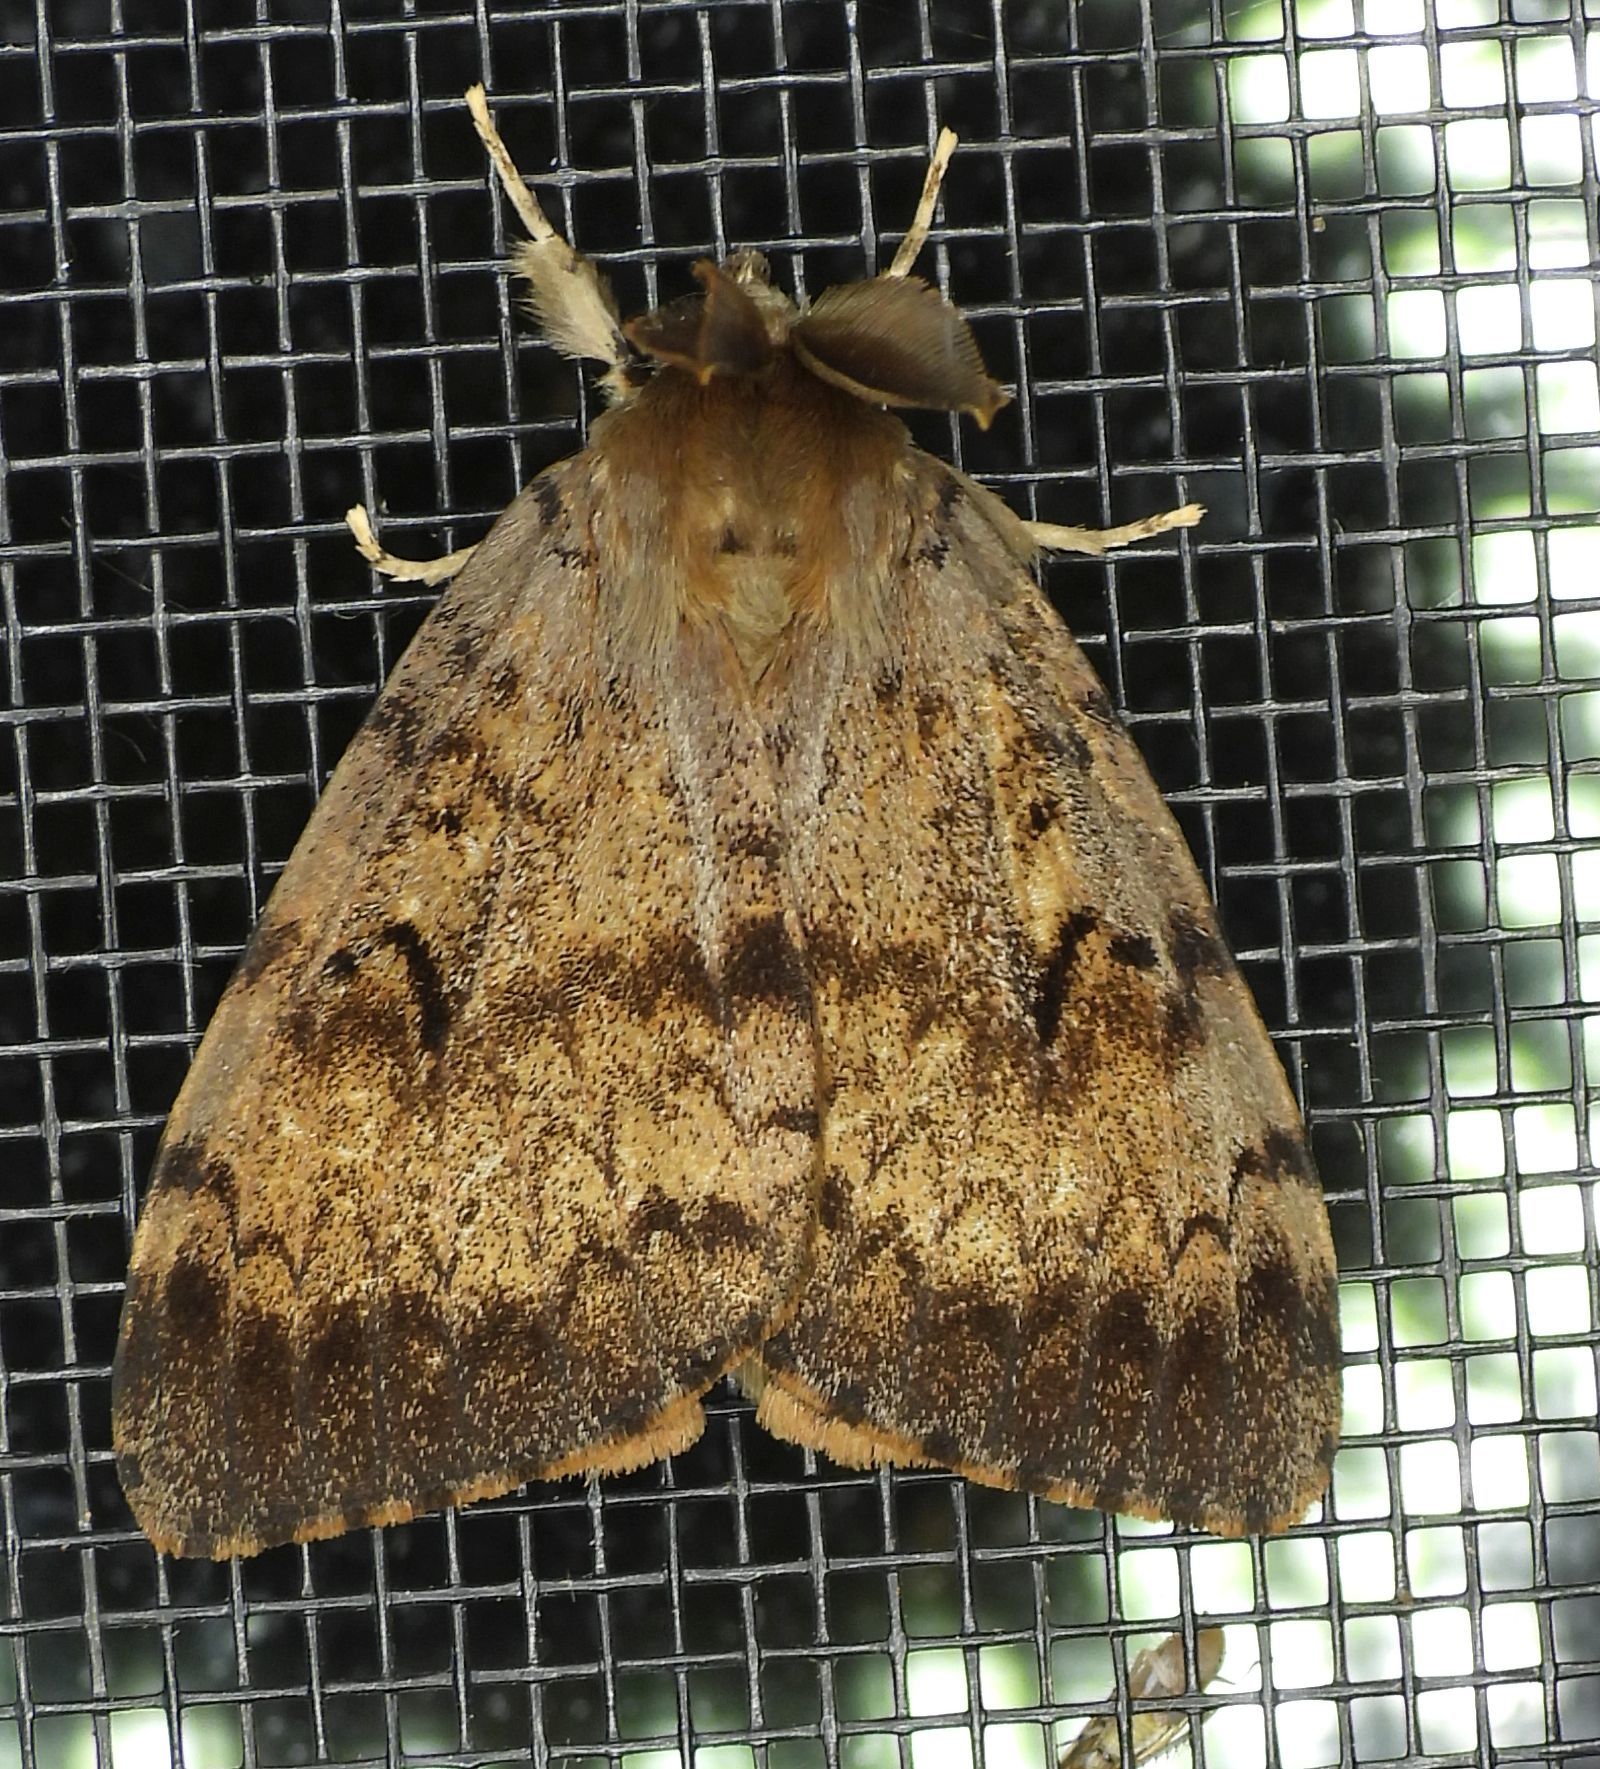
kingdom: Animalia
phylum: Arthropoda
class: Insecta
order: Lepidoptera
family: Erebidae
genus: Lymantria
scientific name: Lymantria dispar
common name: Gypsy moth
